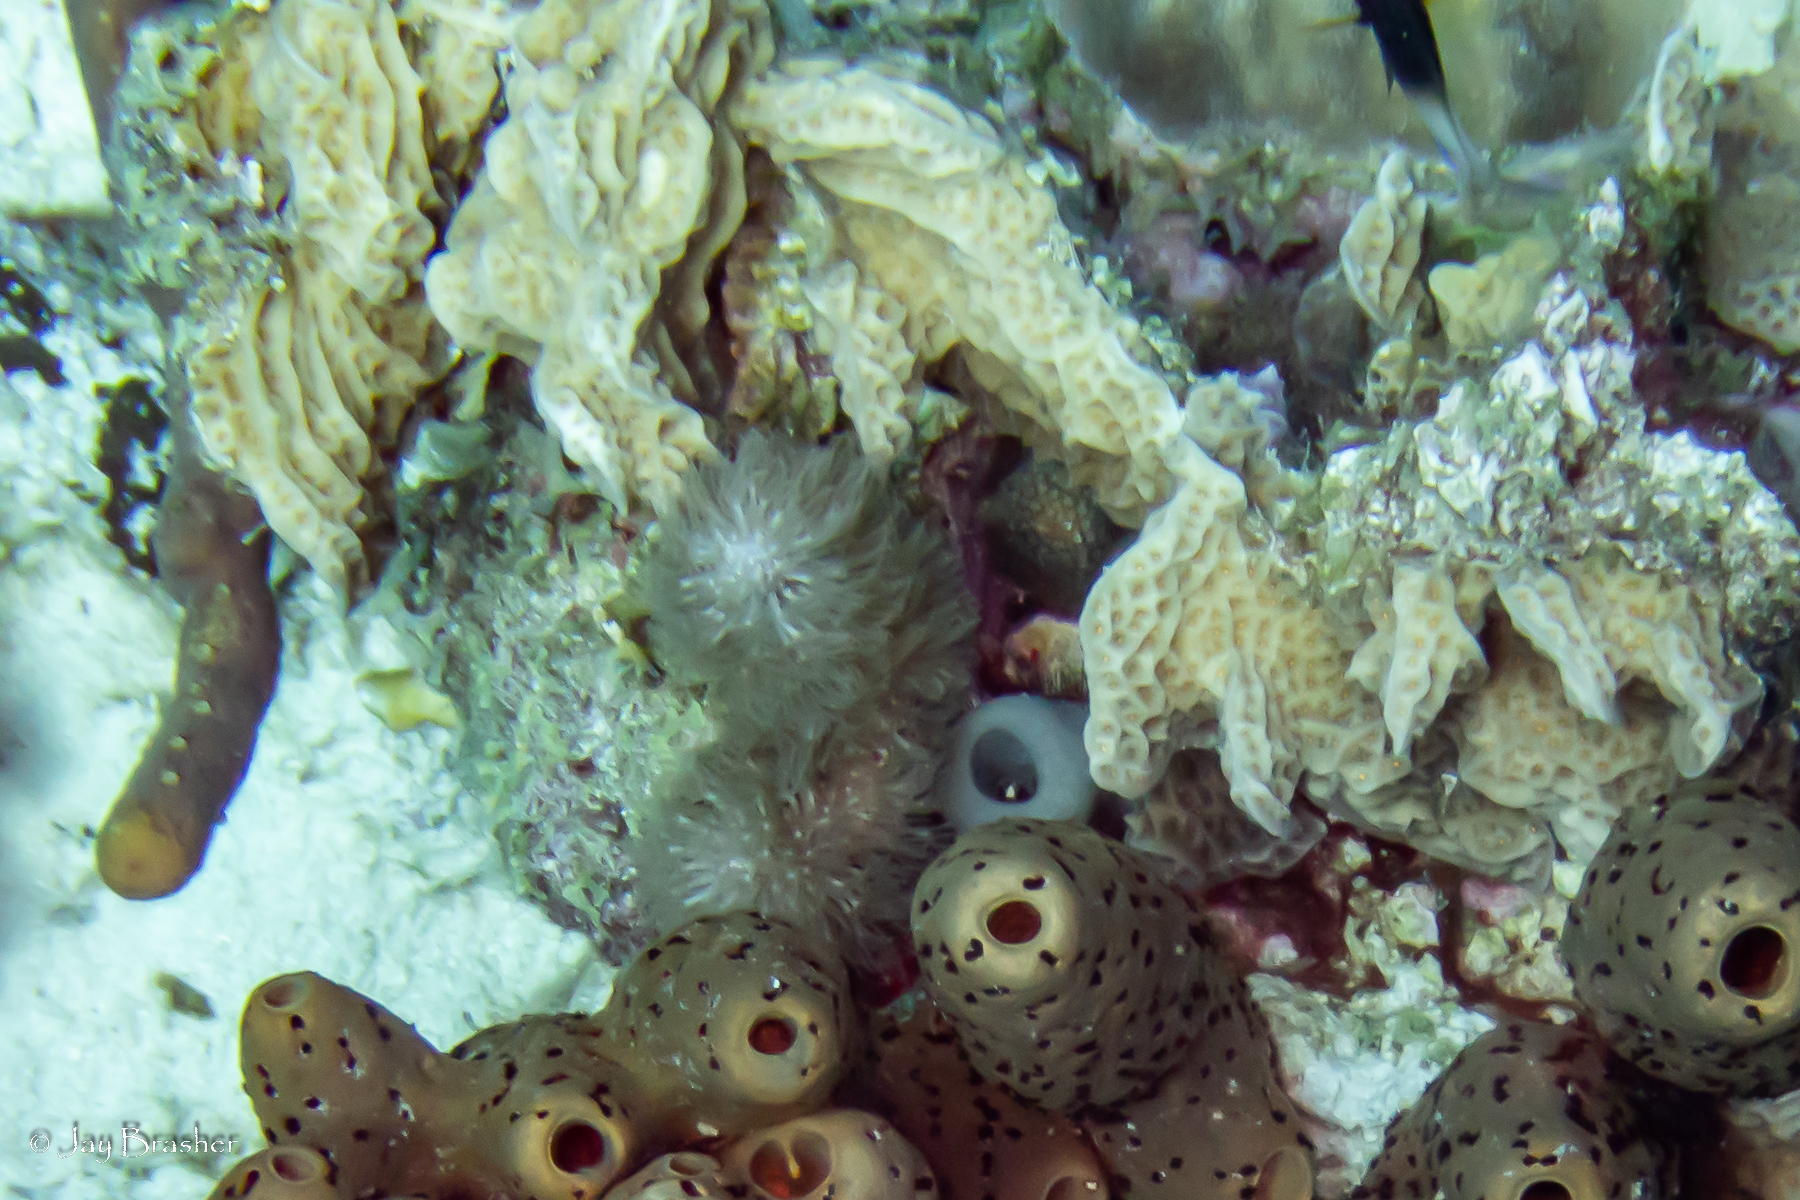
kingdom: Animalia
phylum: Cnidaria
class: Anthozoa
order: Scleractinia
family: Agariciidae
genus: Agaricia
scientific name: Agaricia agaricites
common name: Lettuce coral
